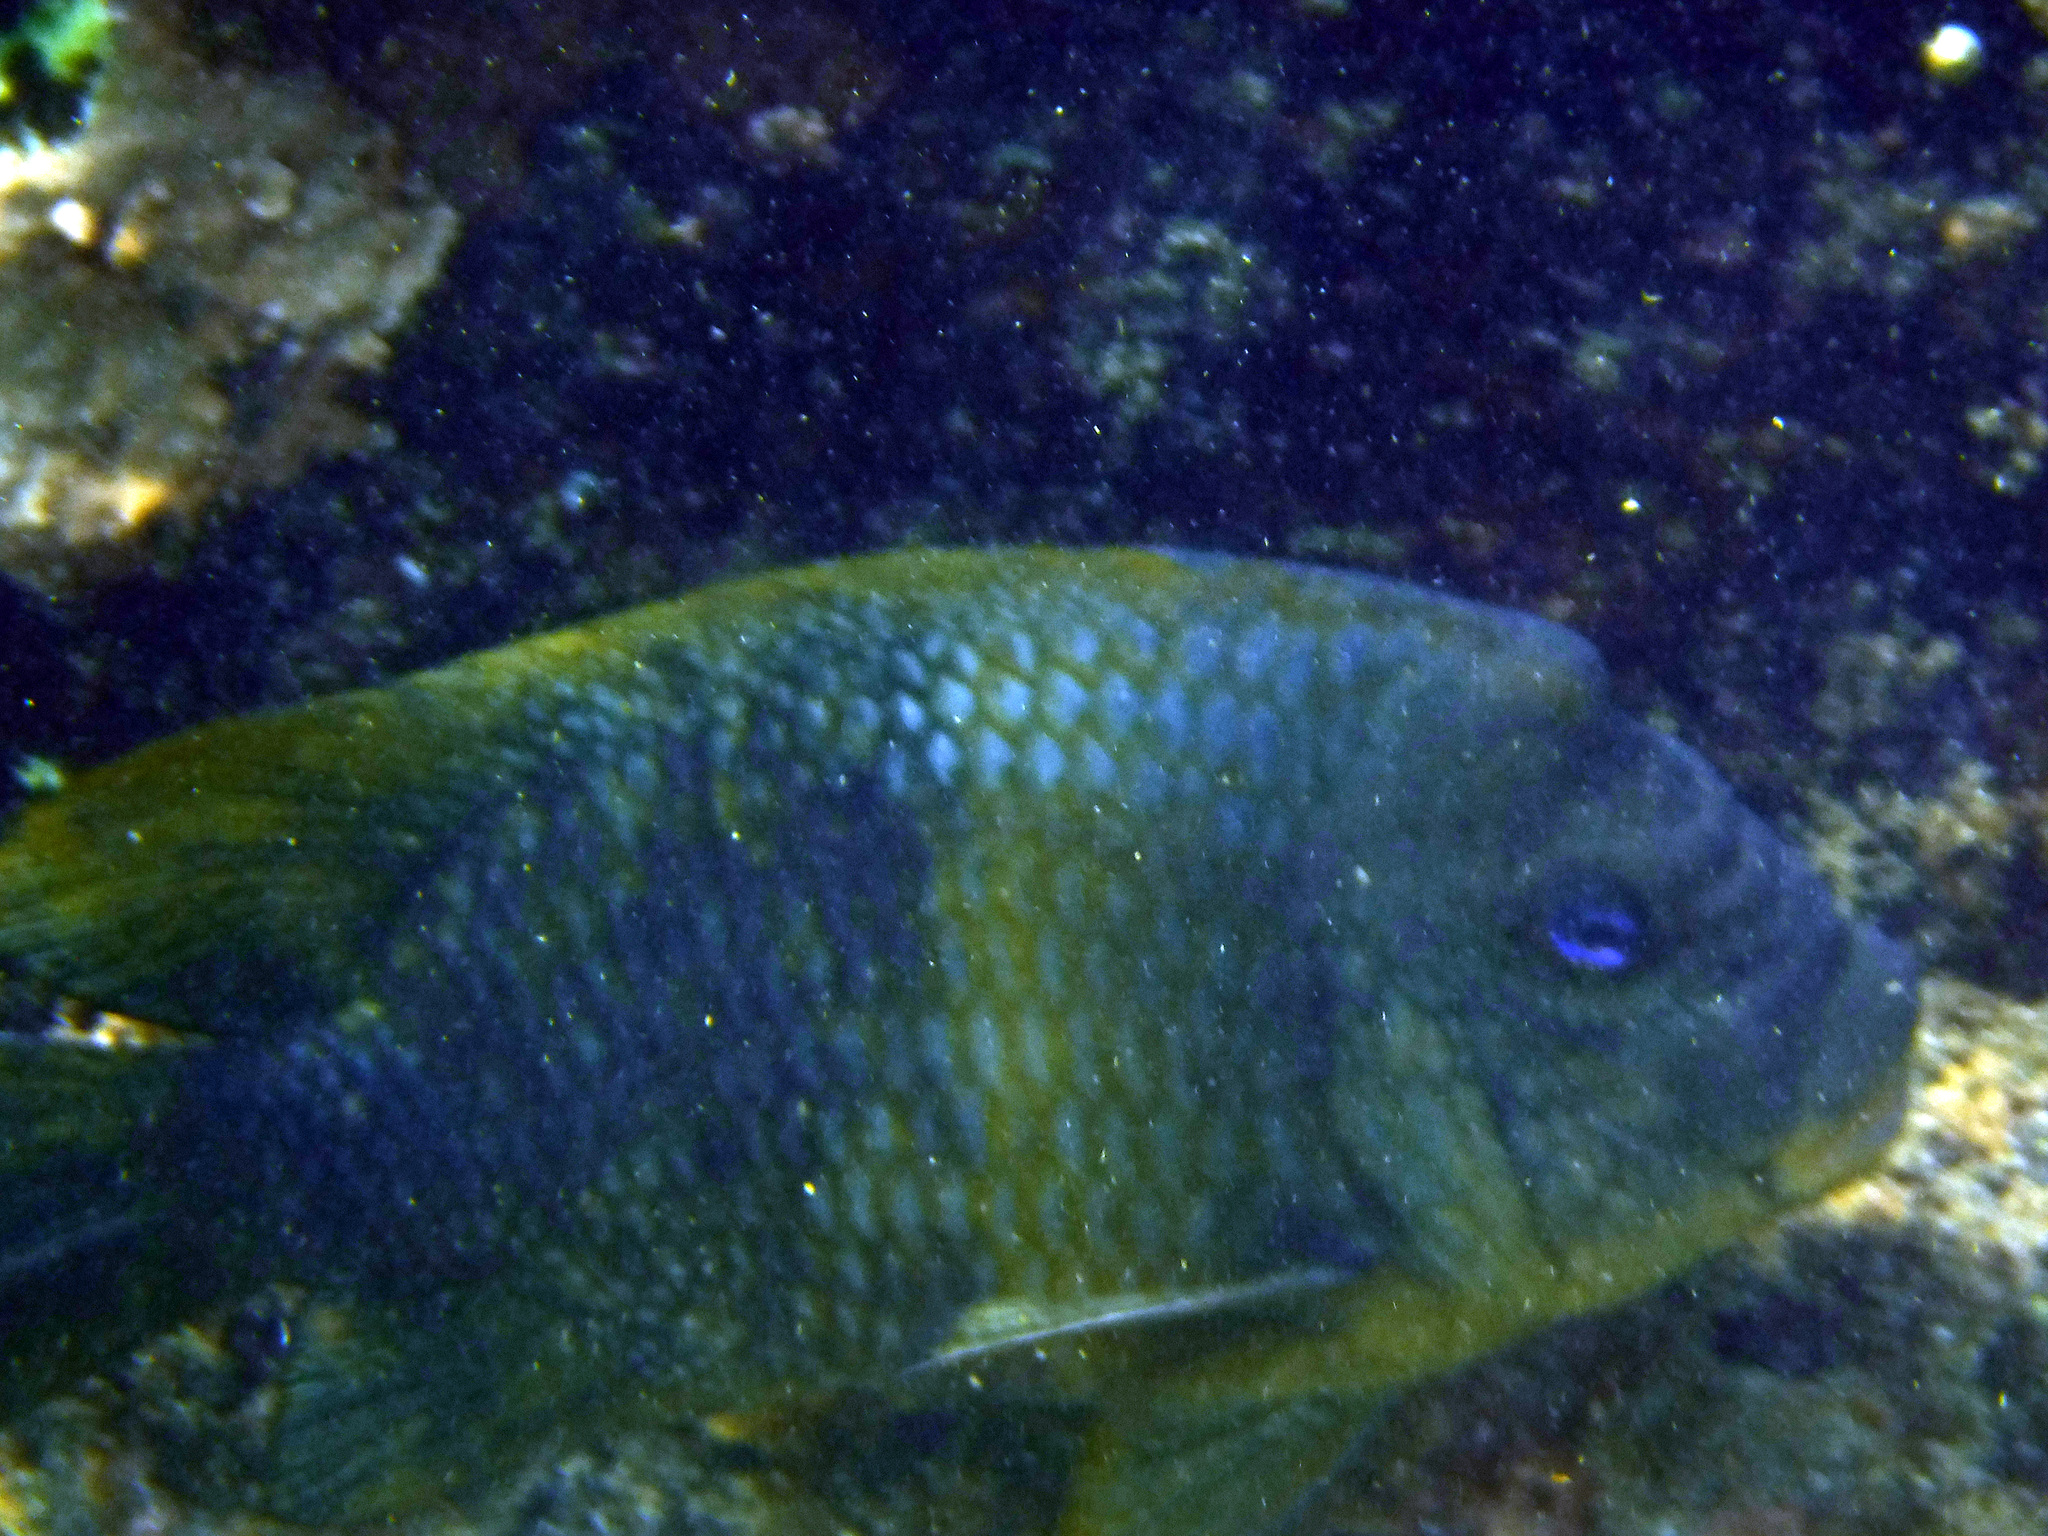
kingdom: Animalia
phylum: Chordata
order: Perciformes
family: Pomacentridae
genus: Microspathodon
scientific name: Microspathodon bairdii
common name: Bumphead damselfish
